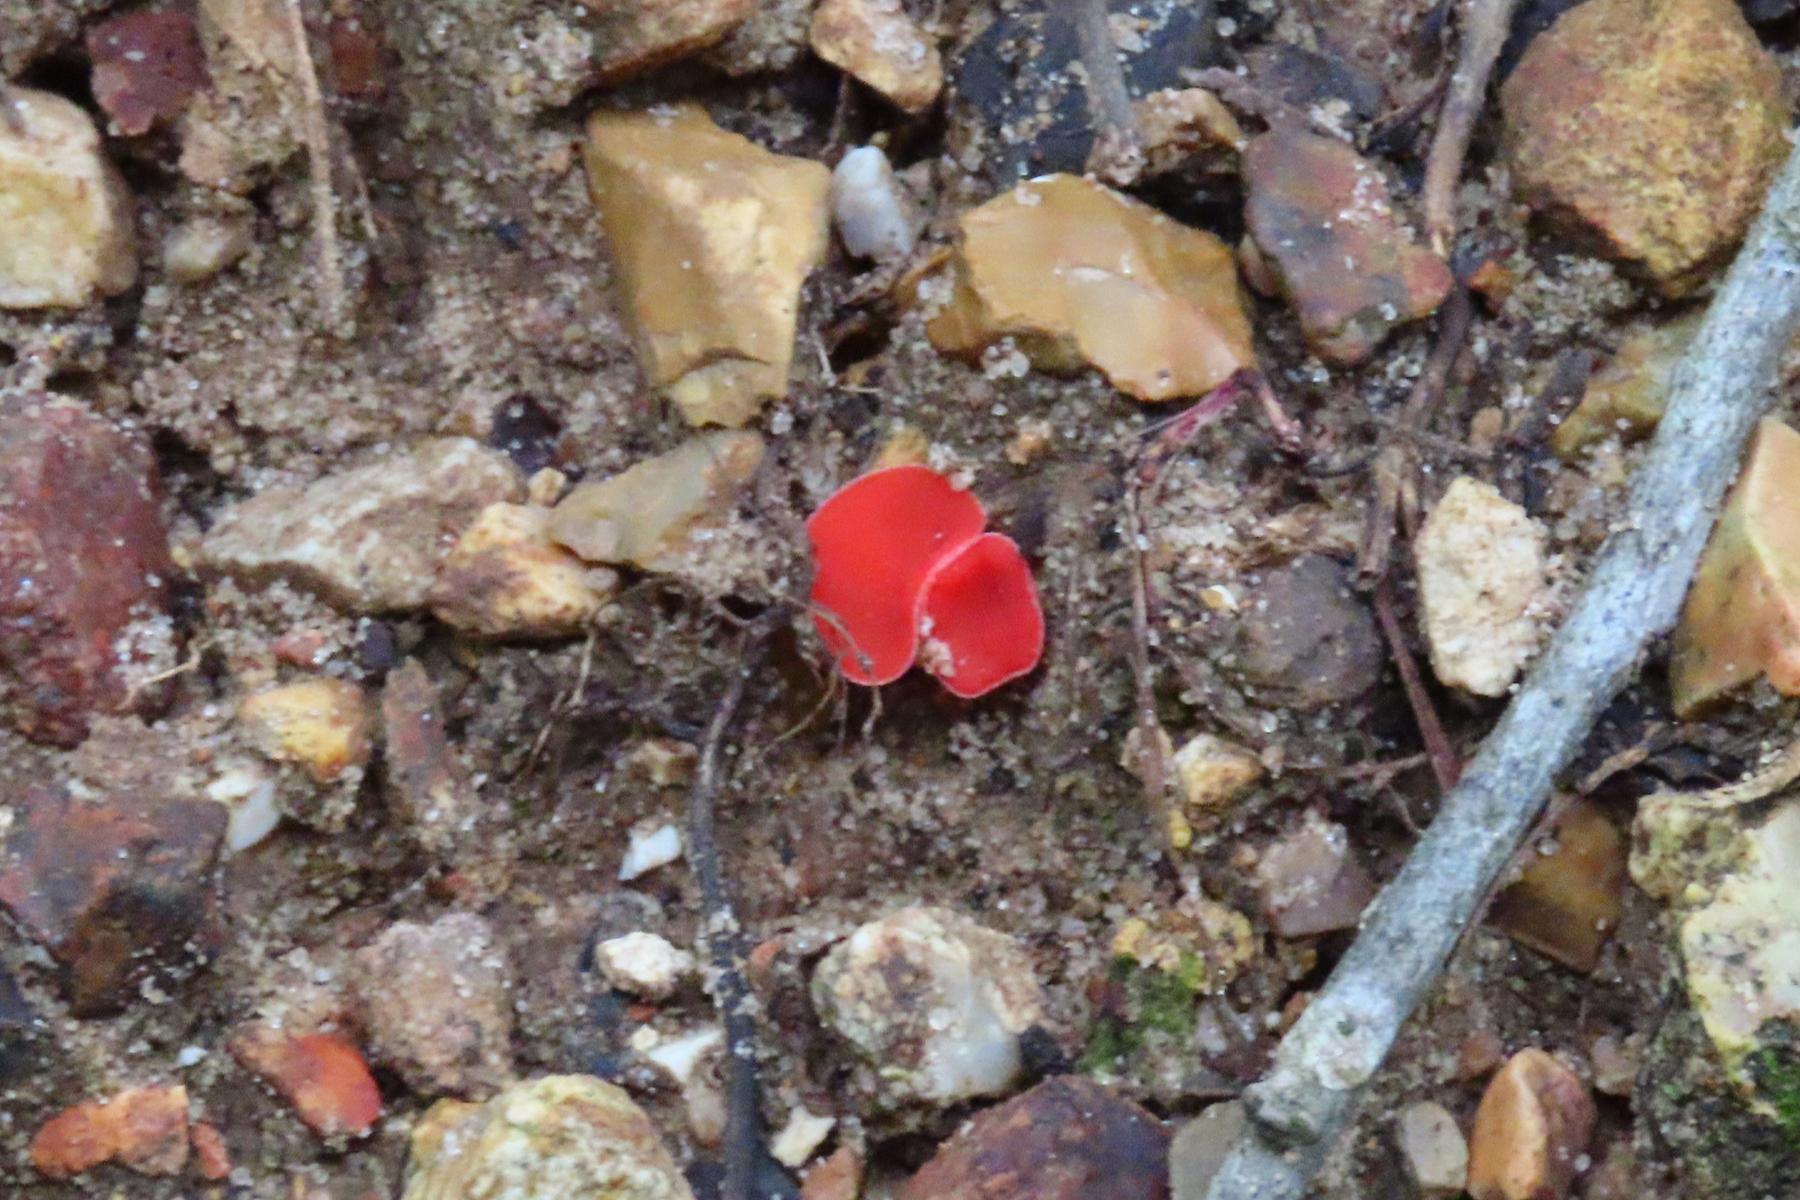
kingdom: Fungi
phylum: Ascomycota
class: Pezizomycetes
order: Pezizales
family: Sarcoscyphaceae
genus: Sarcoscypha
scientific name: Sarcoscypha occidentalis
